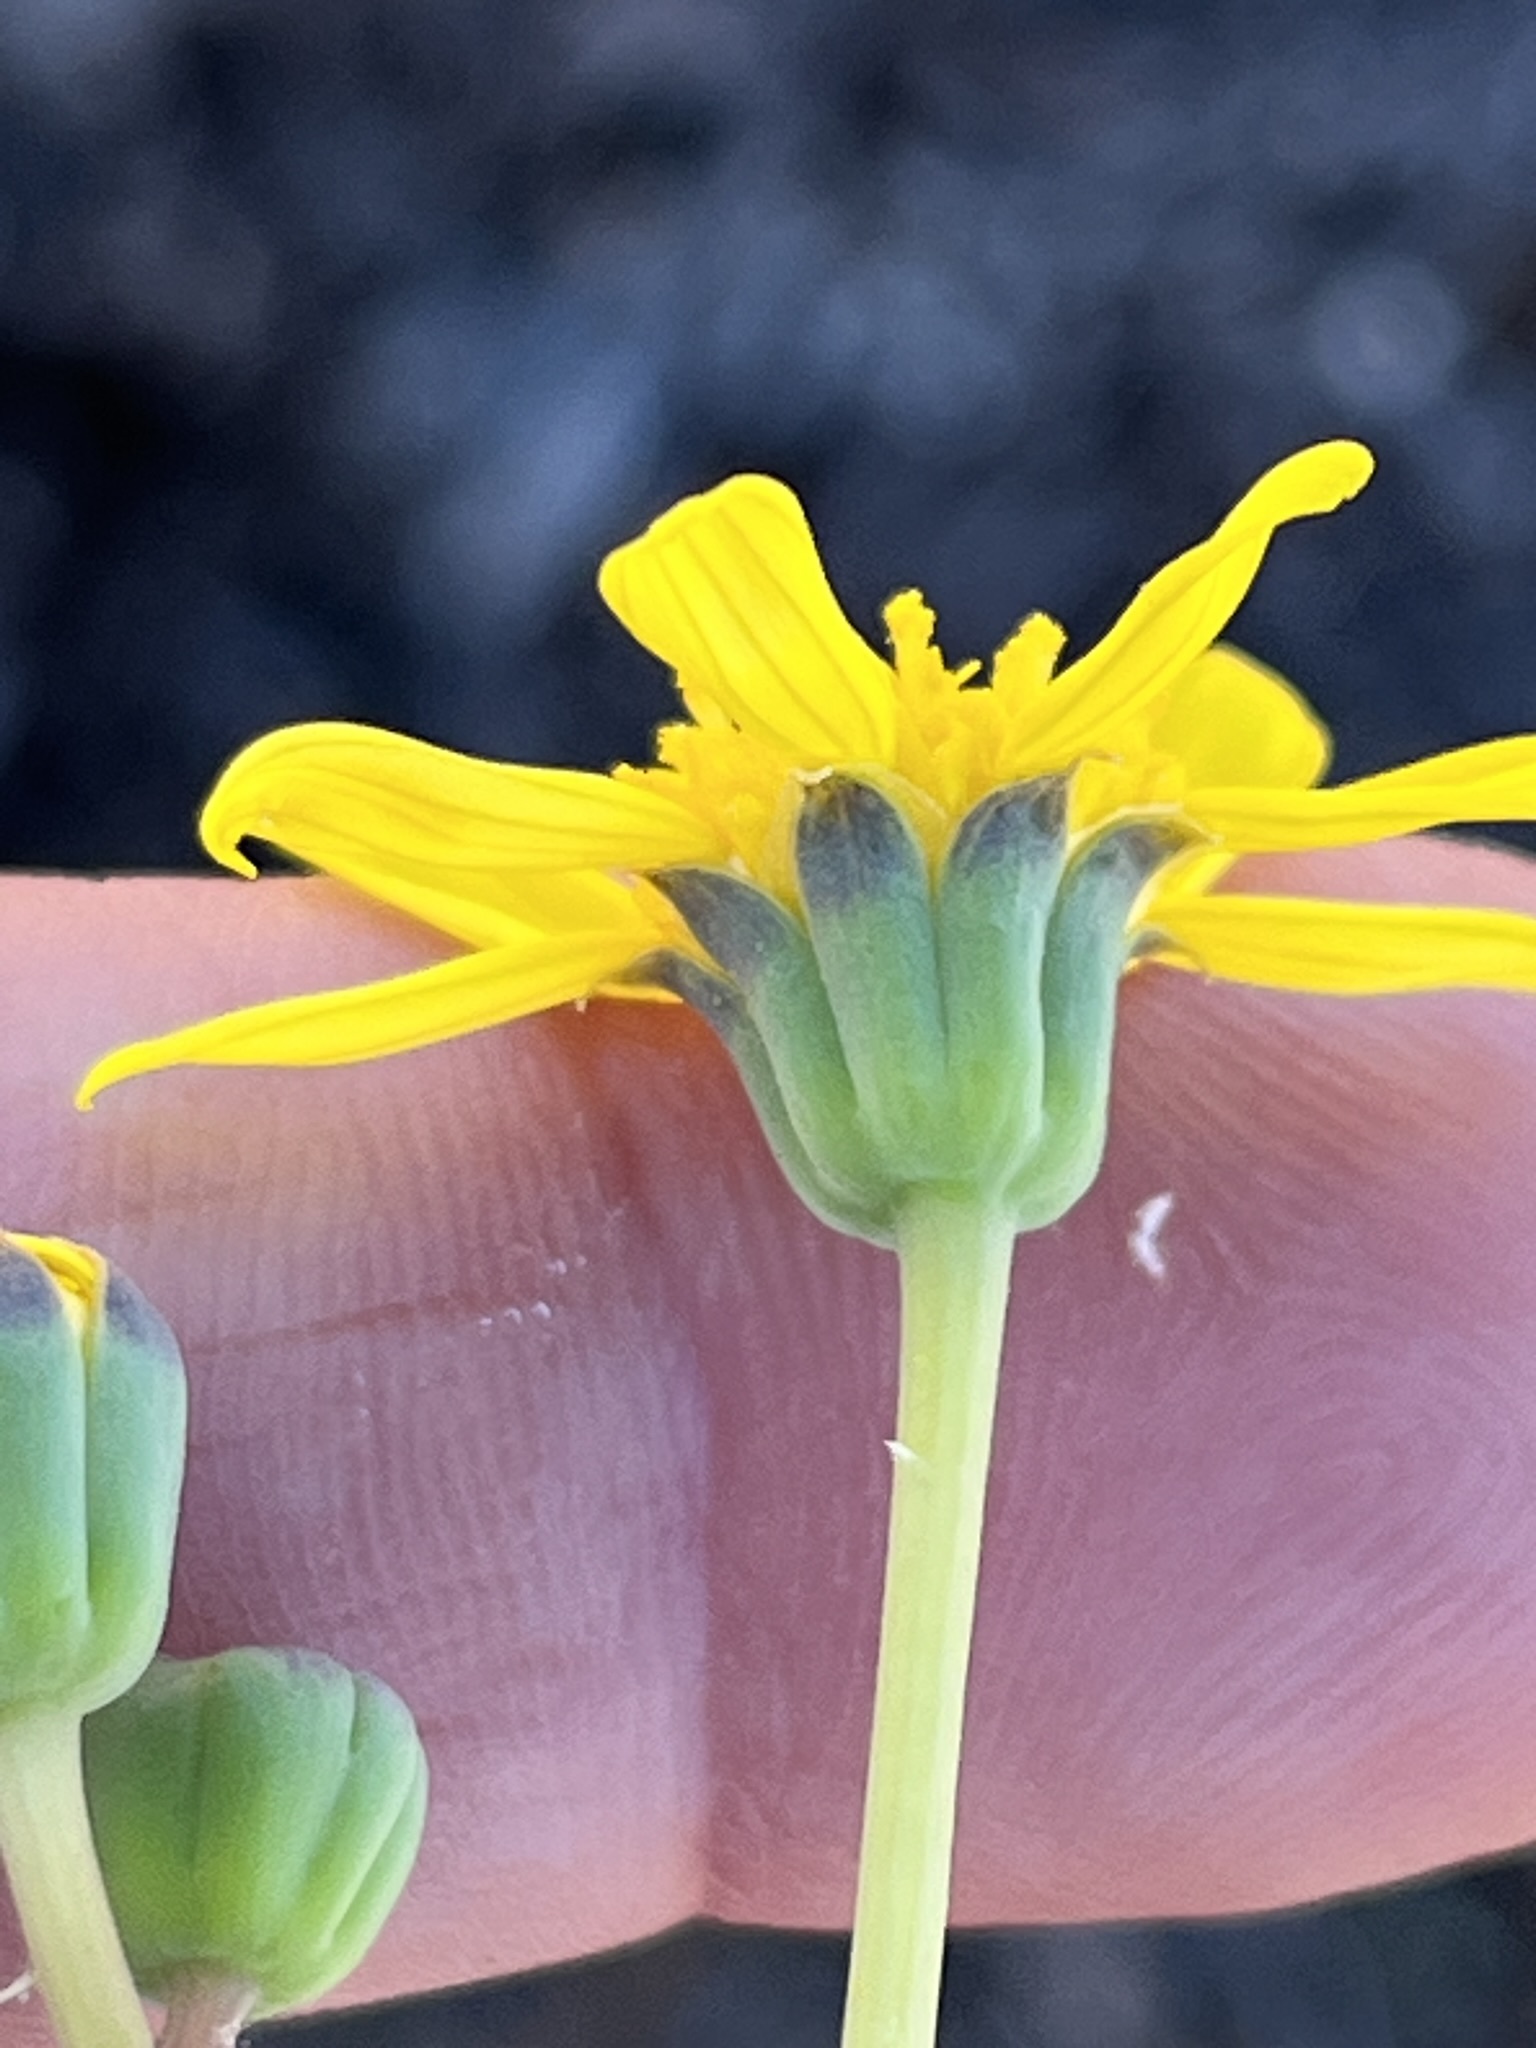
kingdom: Plantae
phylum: Tracheophyta
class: Magnoliopsida
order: Asterales
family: Asteraceae
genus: Othonna
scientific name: Othonna retrorsa
